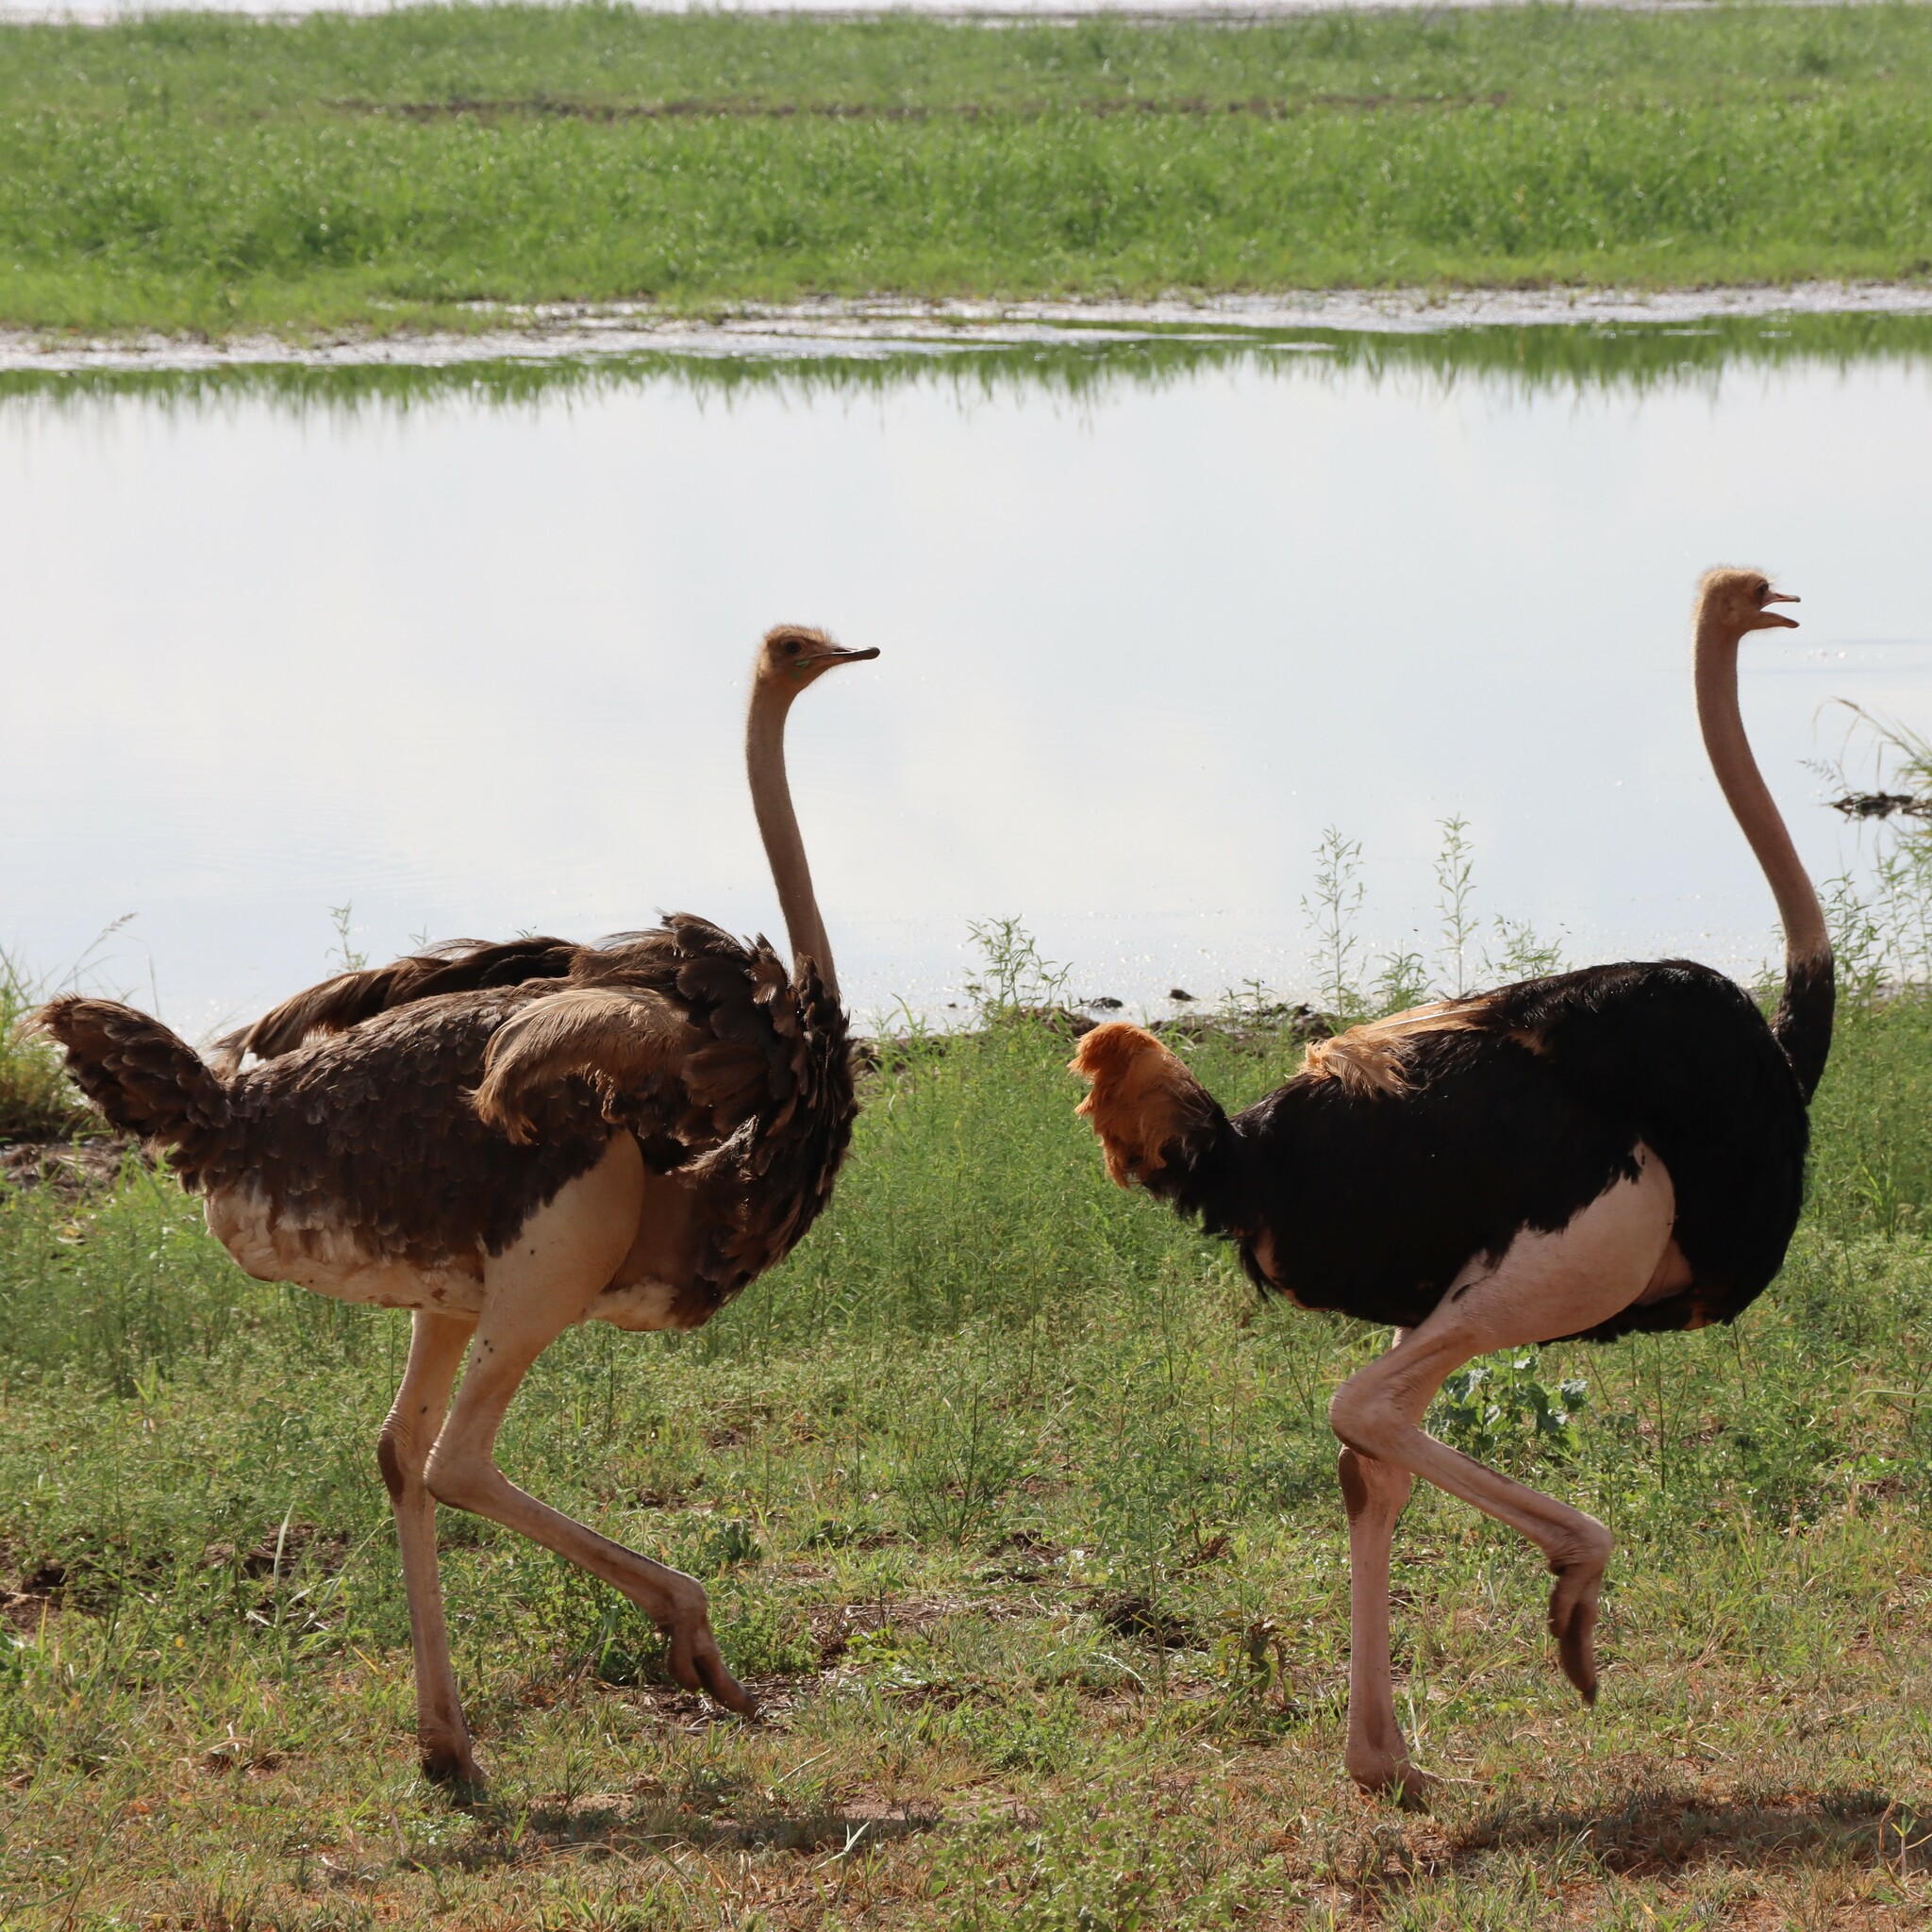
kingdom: Animalia
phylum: Chordata
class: Aves
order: Struthioniformes
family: Struthionidae
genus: Struthio
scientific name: Struthio camelus
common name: Common ostrich
